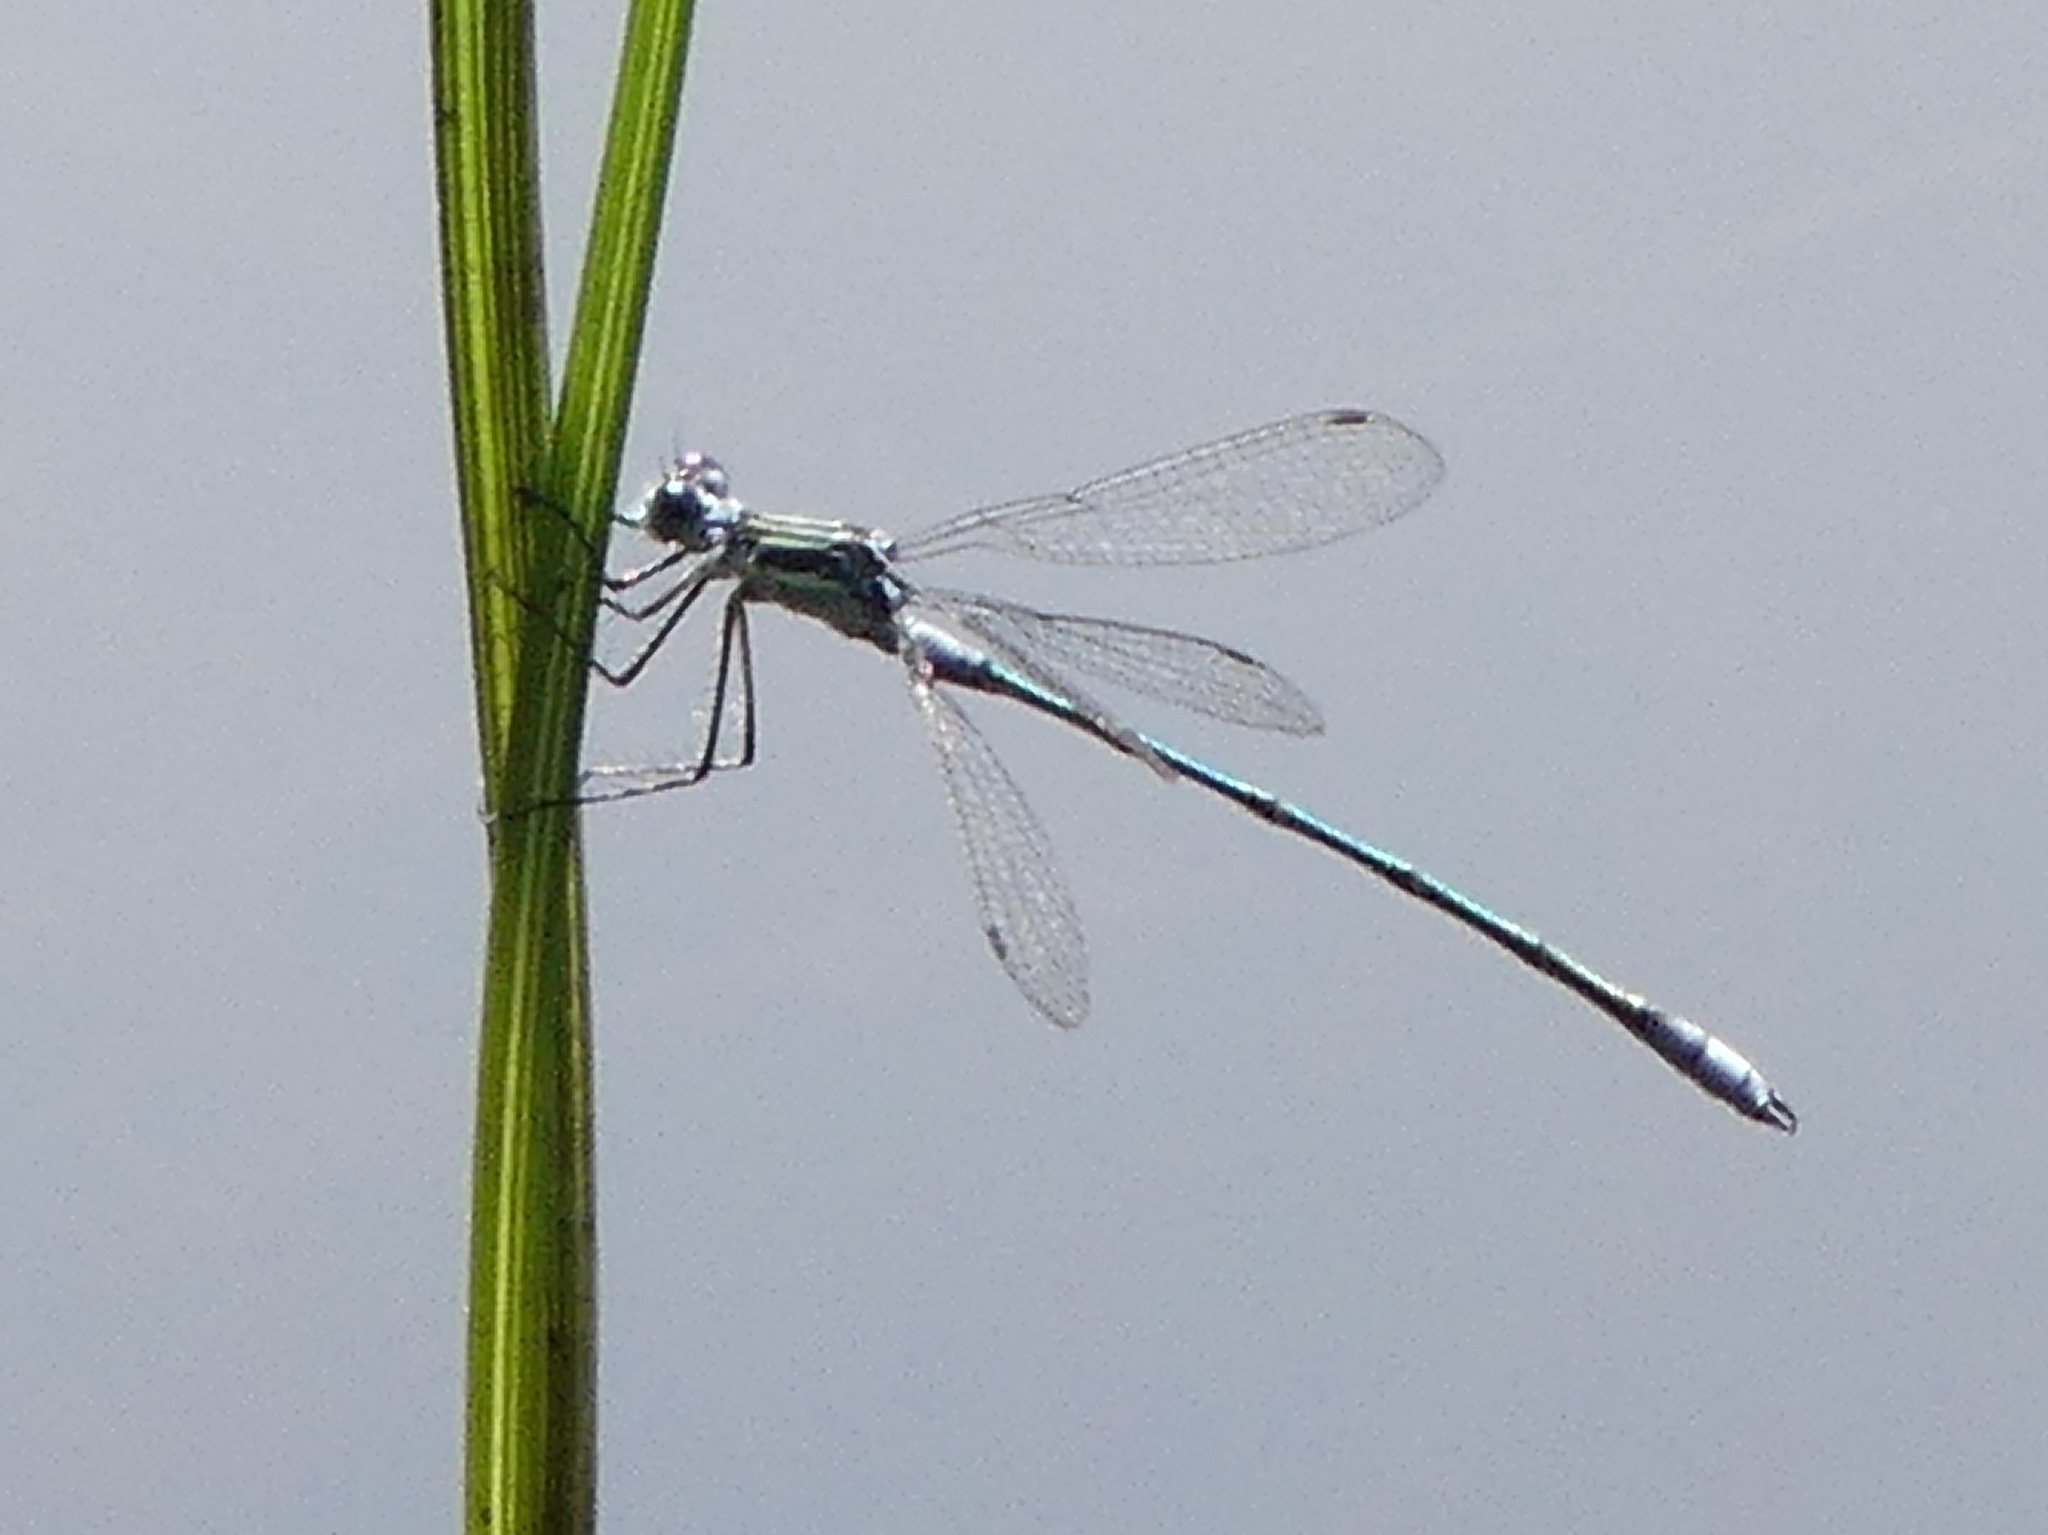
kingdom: Animalia
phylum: Arthropoda
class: Insecta
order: Odonata
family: Lestidae
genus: Lestes
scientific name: Lestes vigilax
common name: Swamp spreadwing
